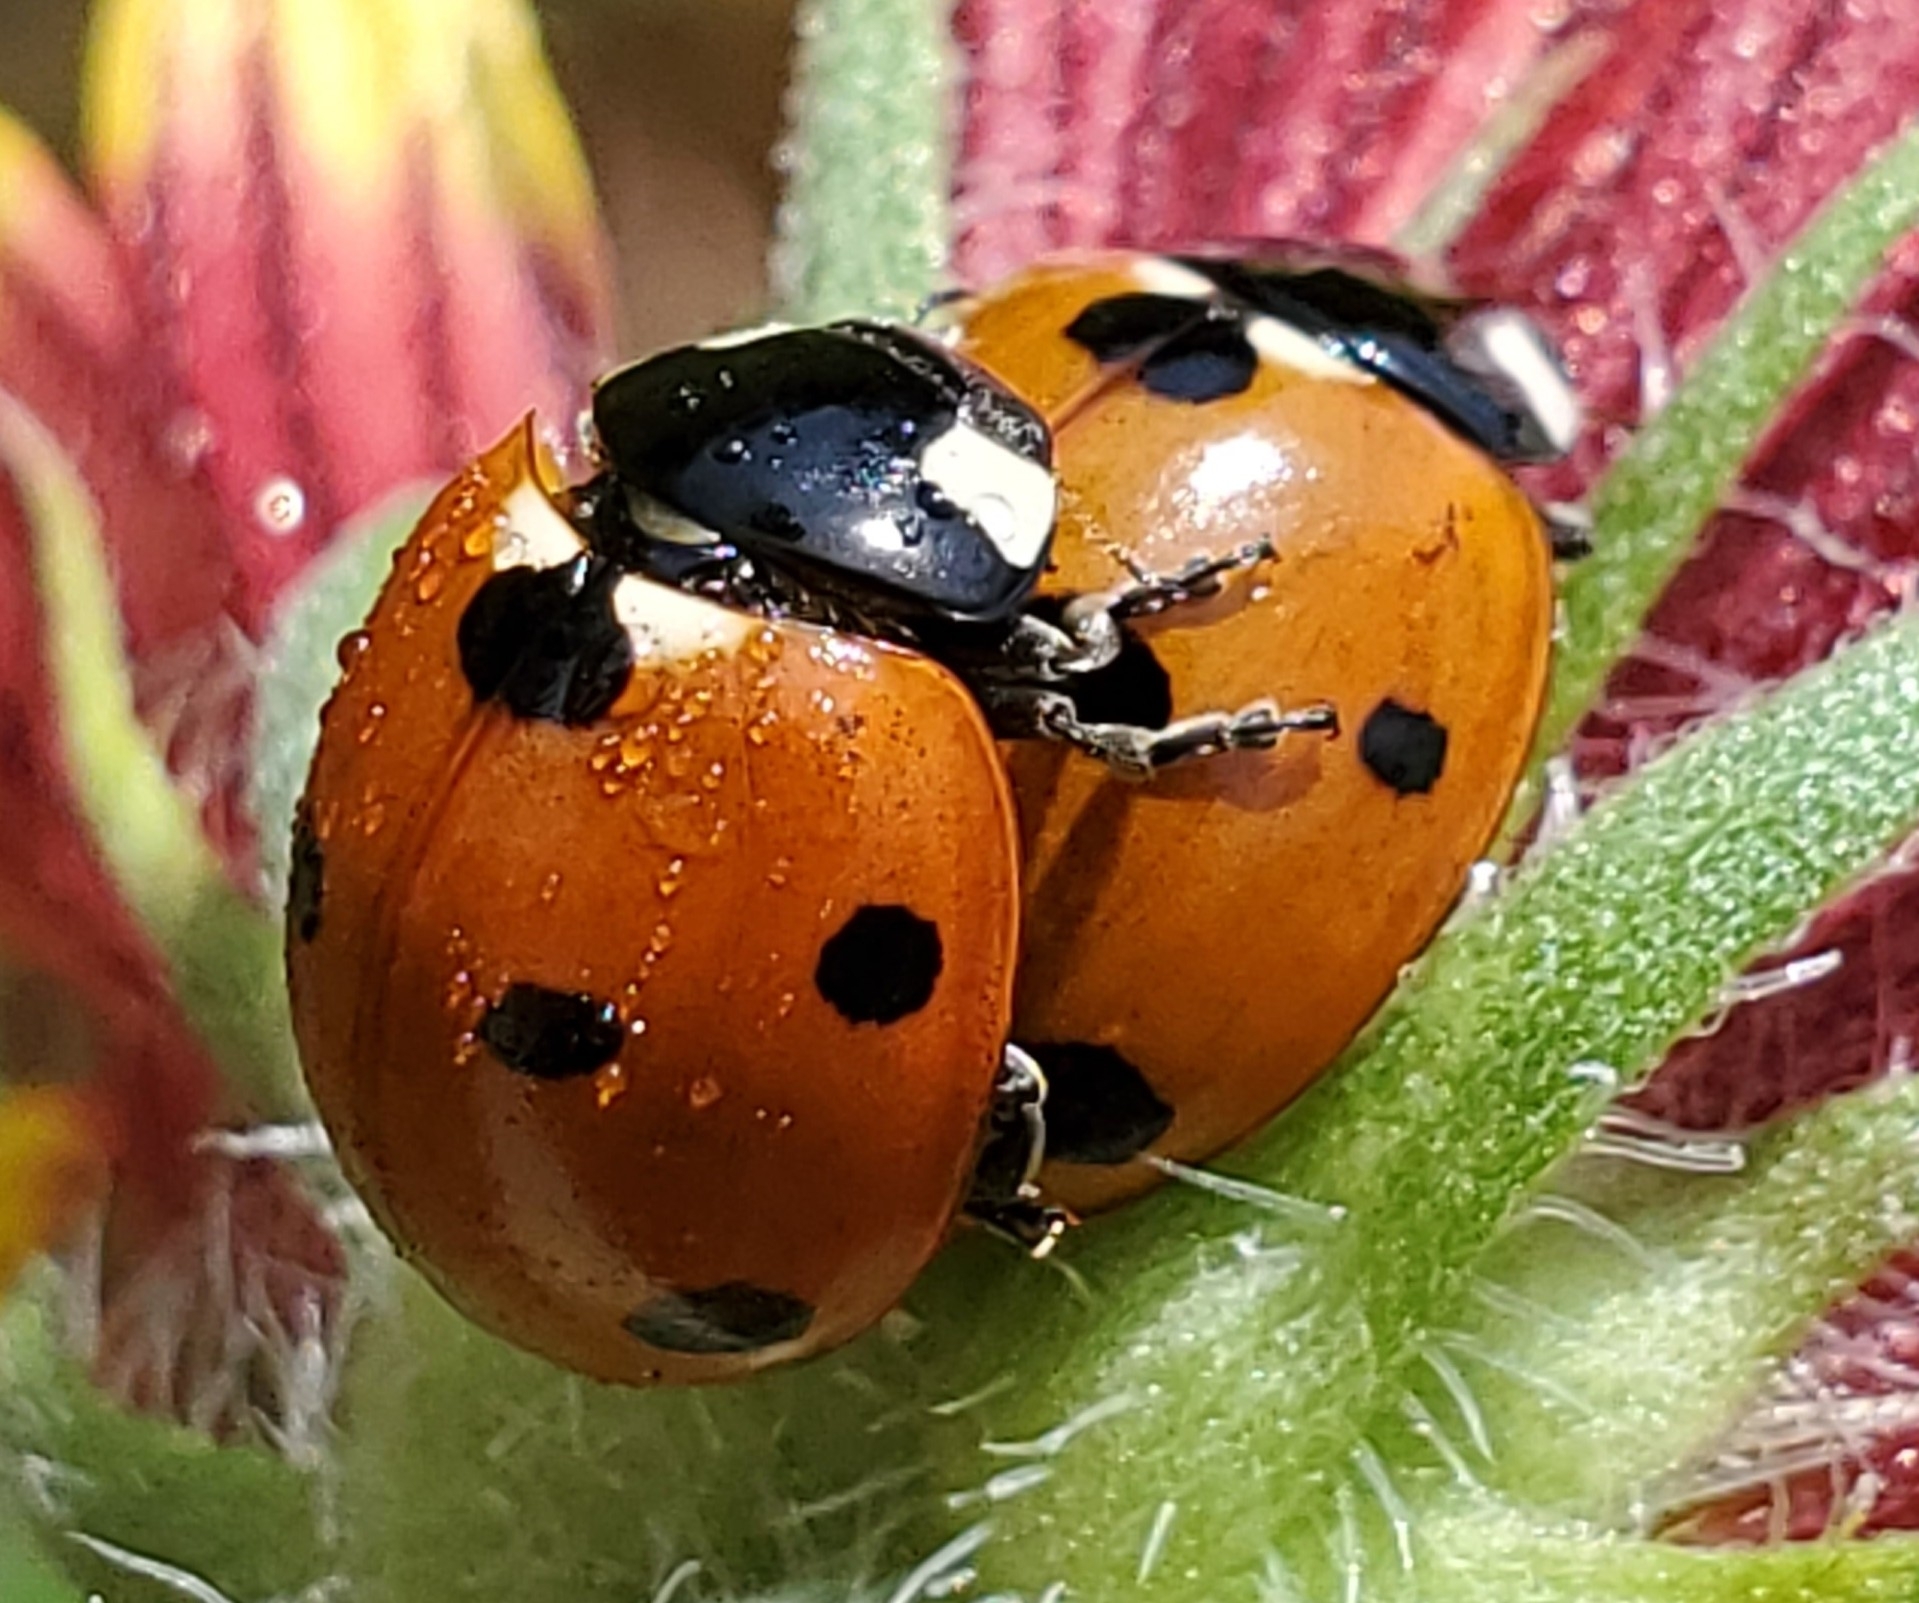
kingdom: Animalia
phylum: Arthropoda
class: Insecta
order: Coleoptera
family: Coccinellidae
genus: Coccinella
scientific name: Coccinella septempunctata
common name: Sevenspotted lady beetle
